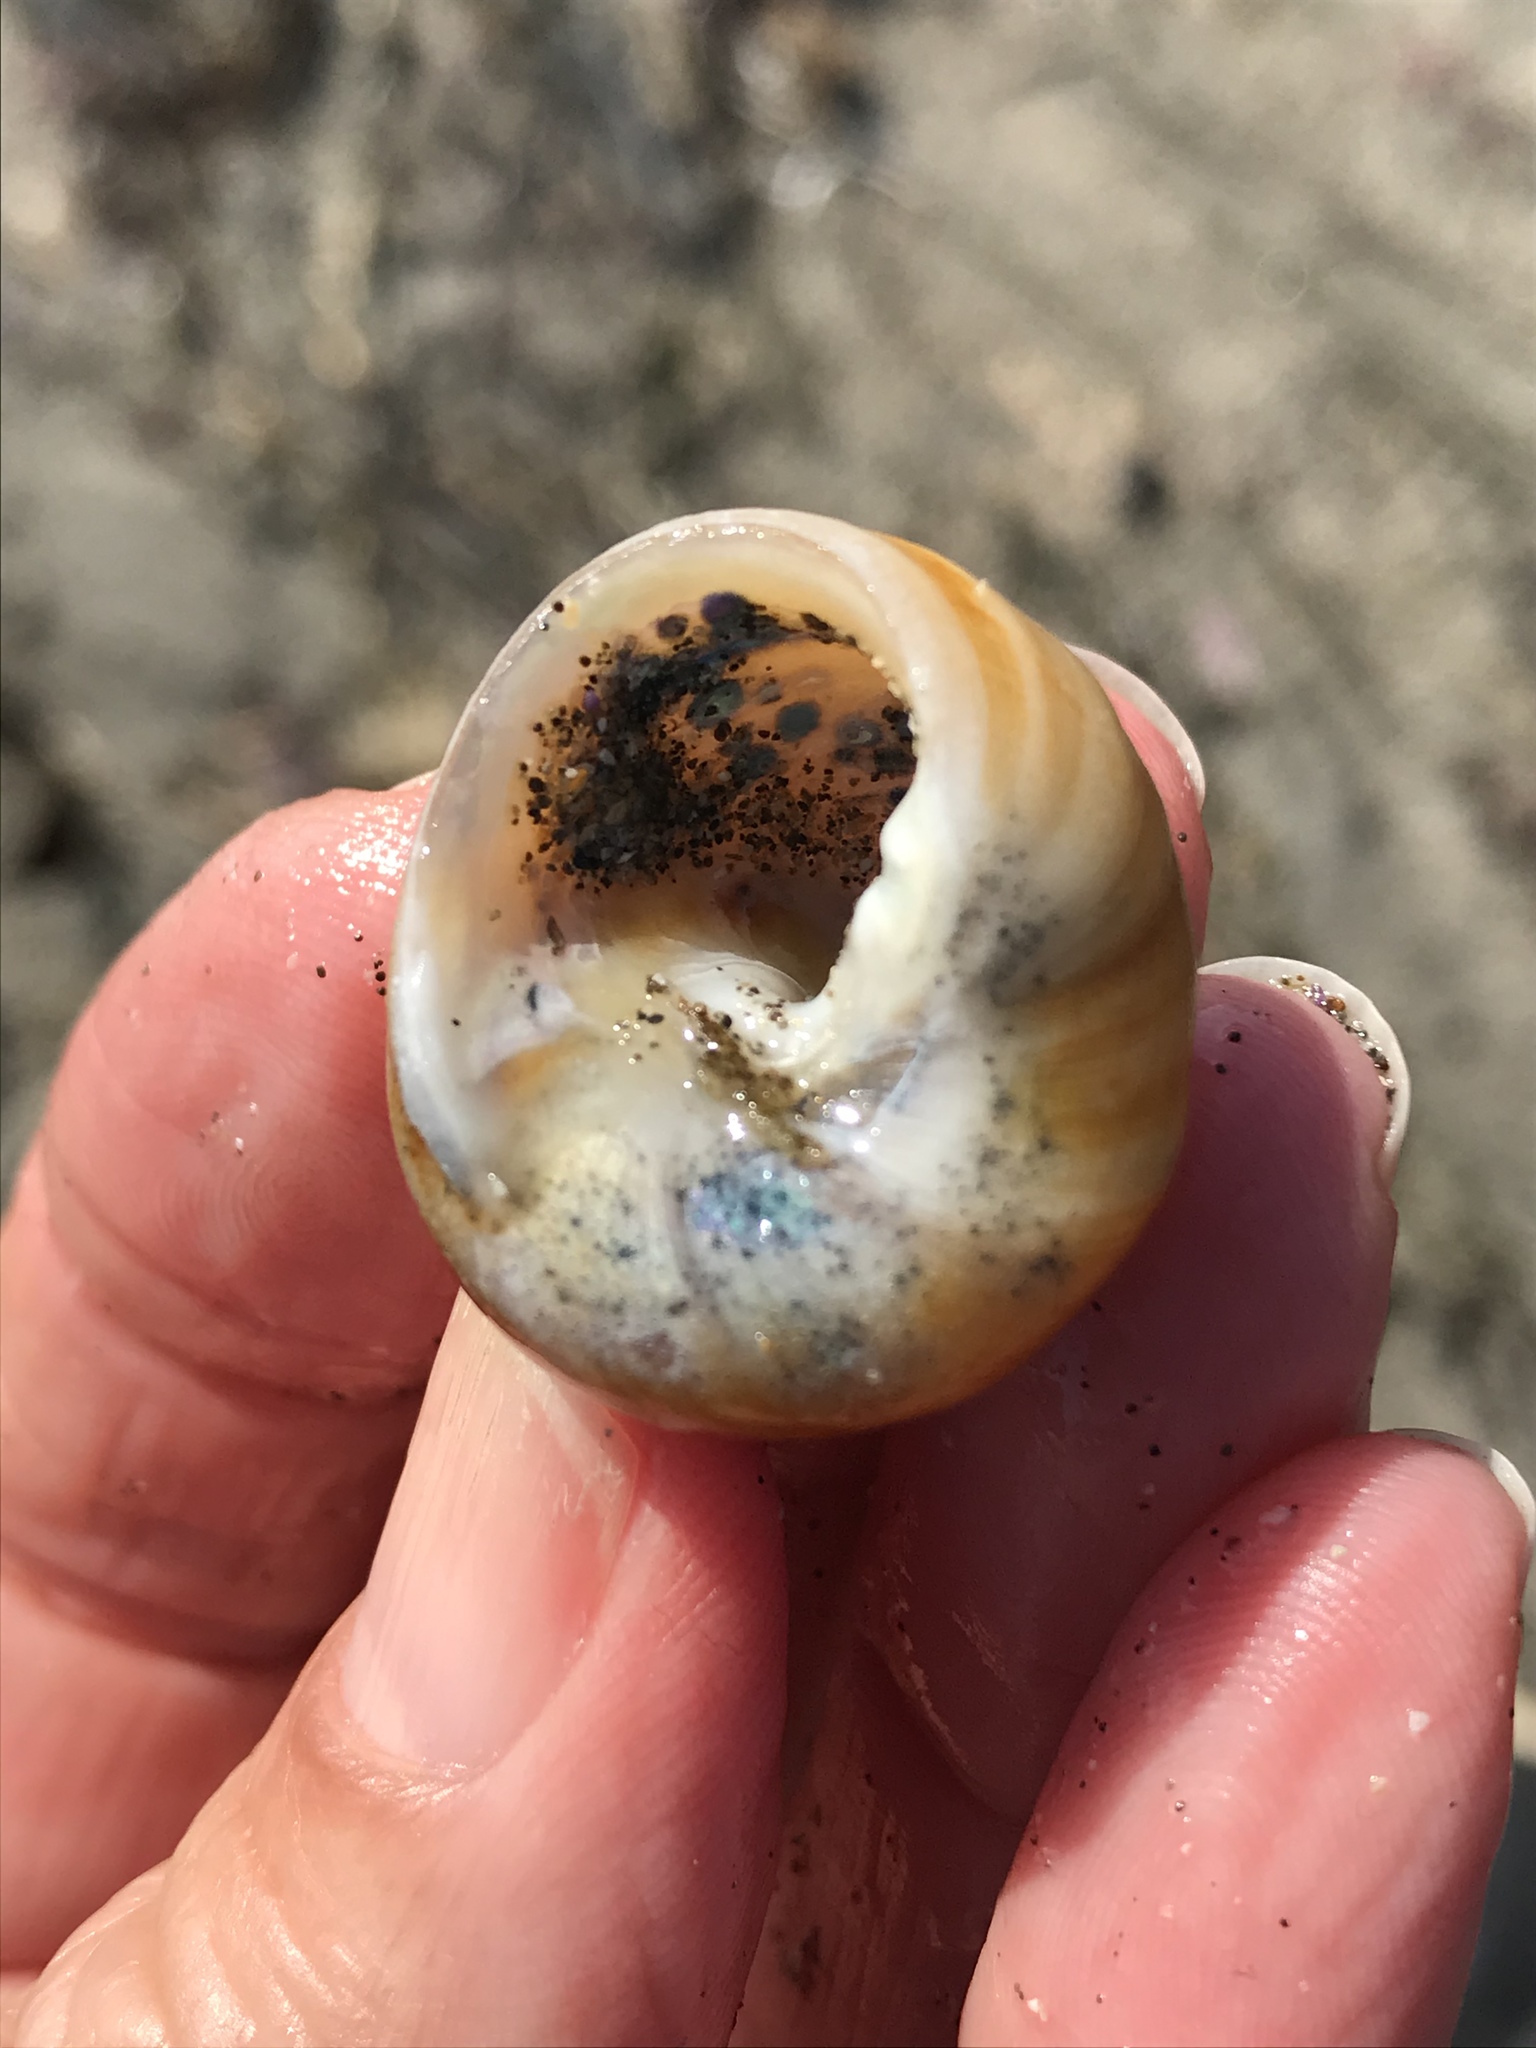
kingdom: Animalia
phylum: Mollusca
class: Gastropoda
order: Trochida
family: Tegulidae
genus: Tegula
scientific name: Tegula brunnea
